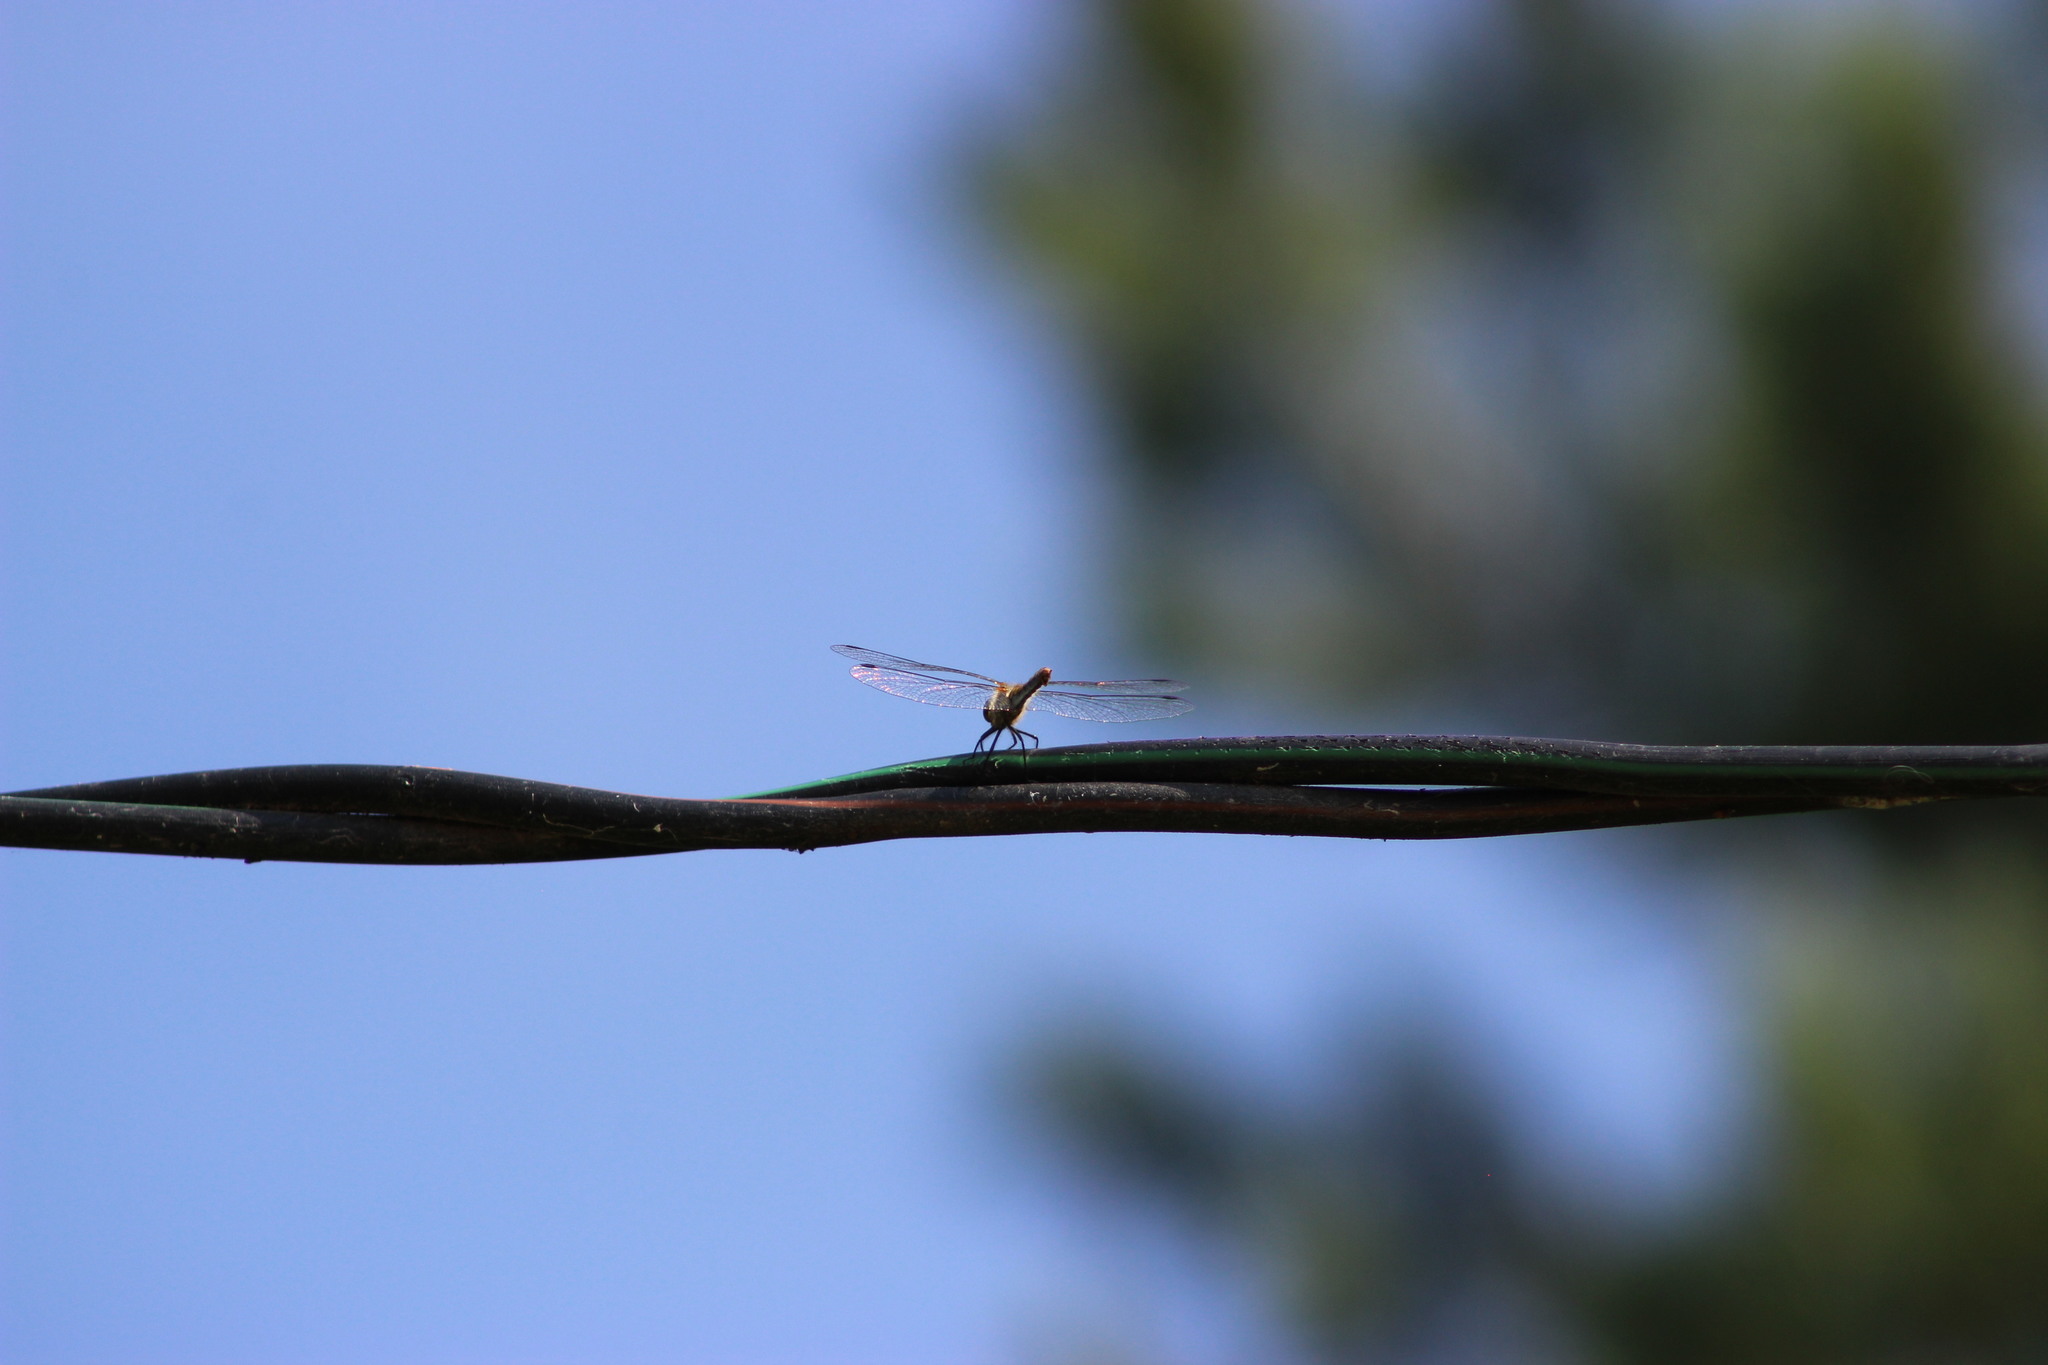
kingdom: Animalia
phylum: Arthropoda
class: Insecta
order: Odonata
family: Libellulidae
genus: Sympetrum
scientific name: Sympetrum flaveolum
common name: Yellow-winged darter
